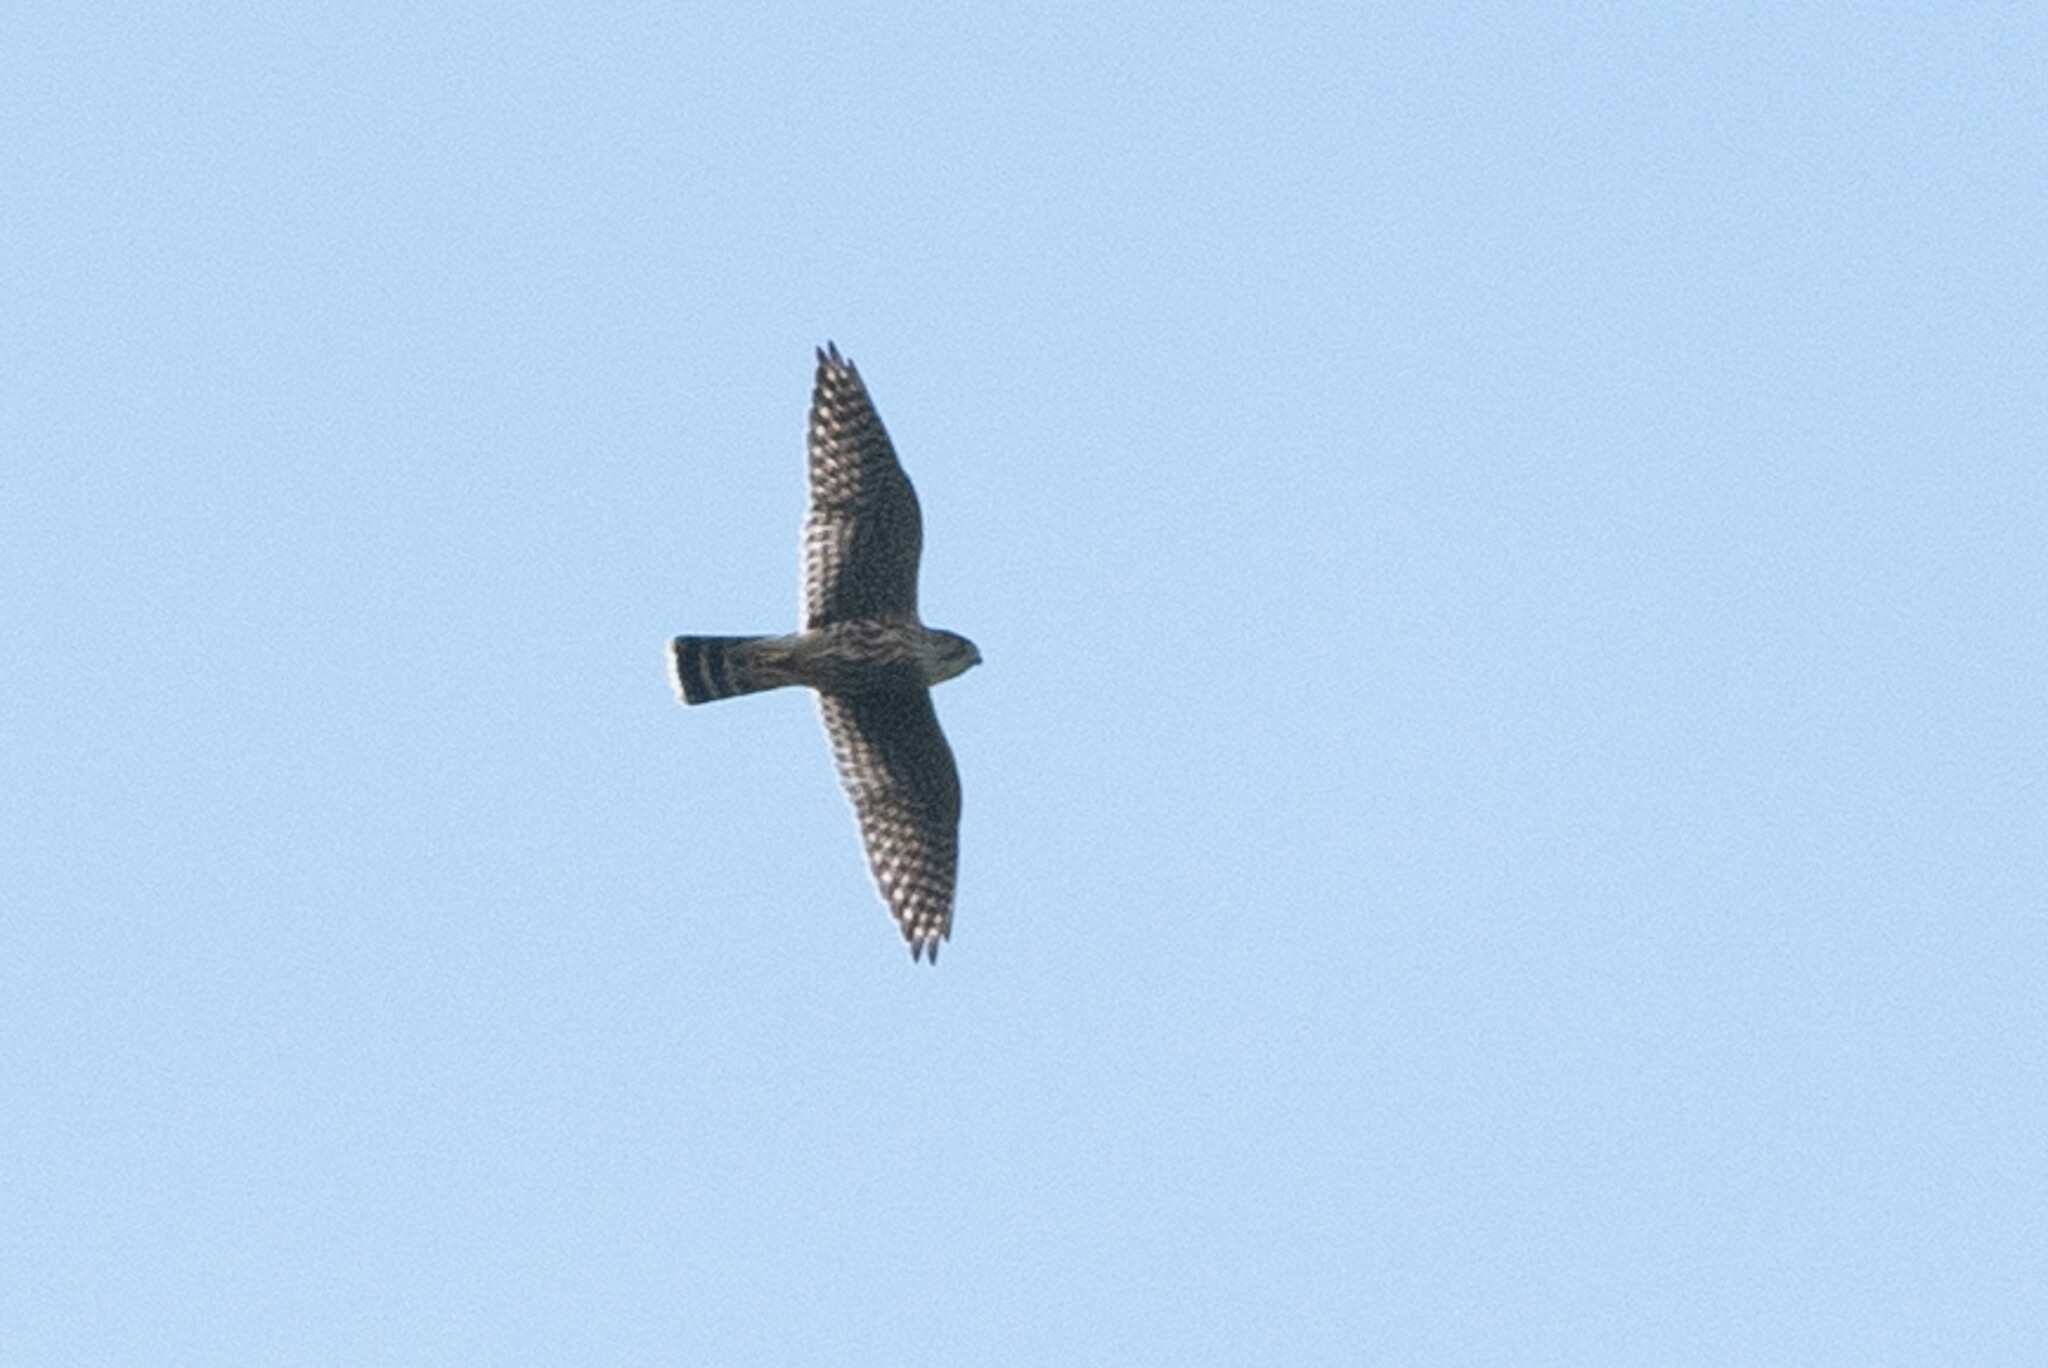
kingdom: Animalia
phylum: Chordata
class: Aves
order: Falconiformes
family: Falconidae
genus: Falco
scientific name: Falco columbarius
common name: Merlin
